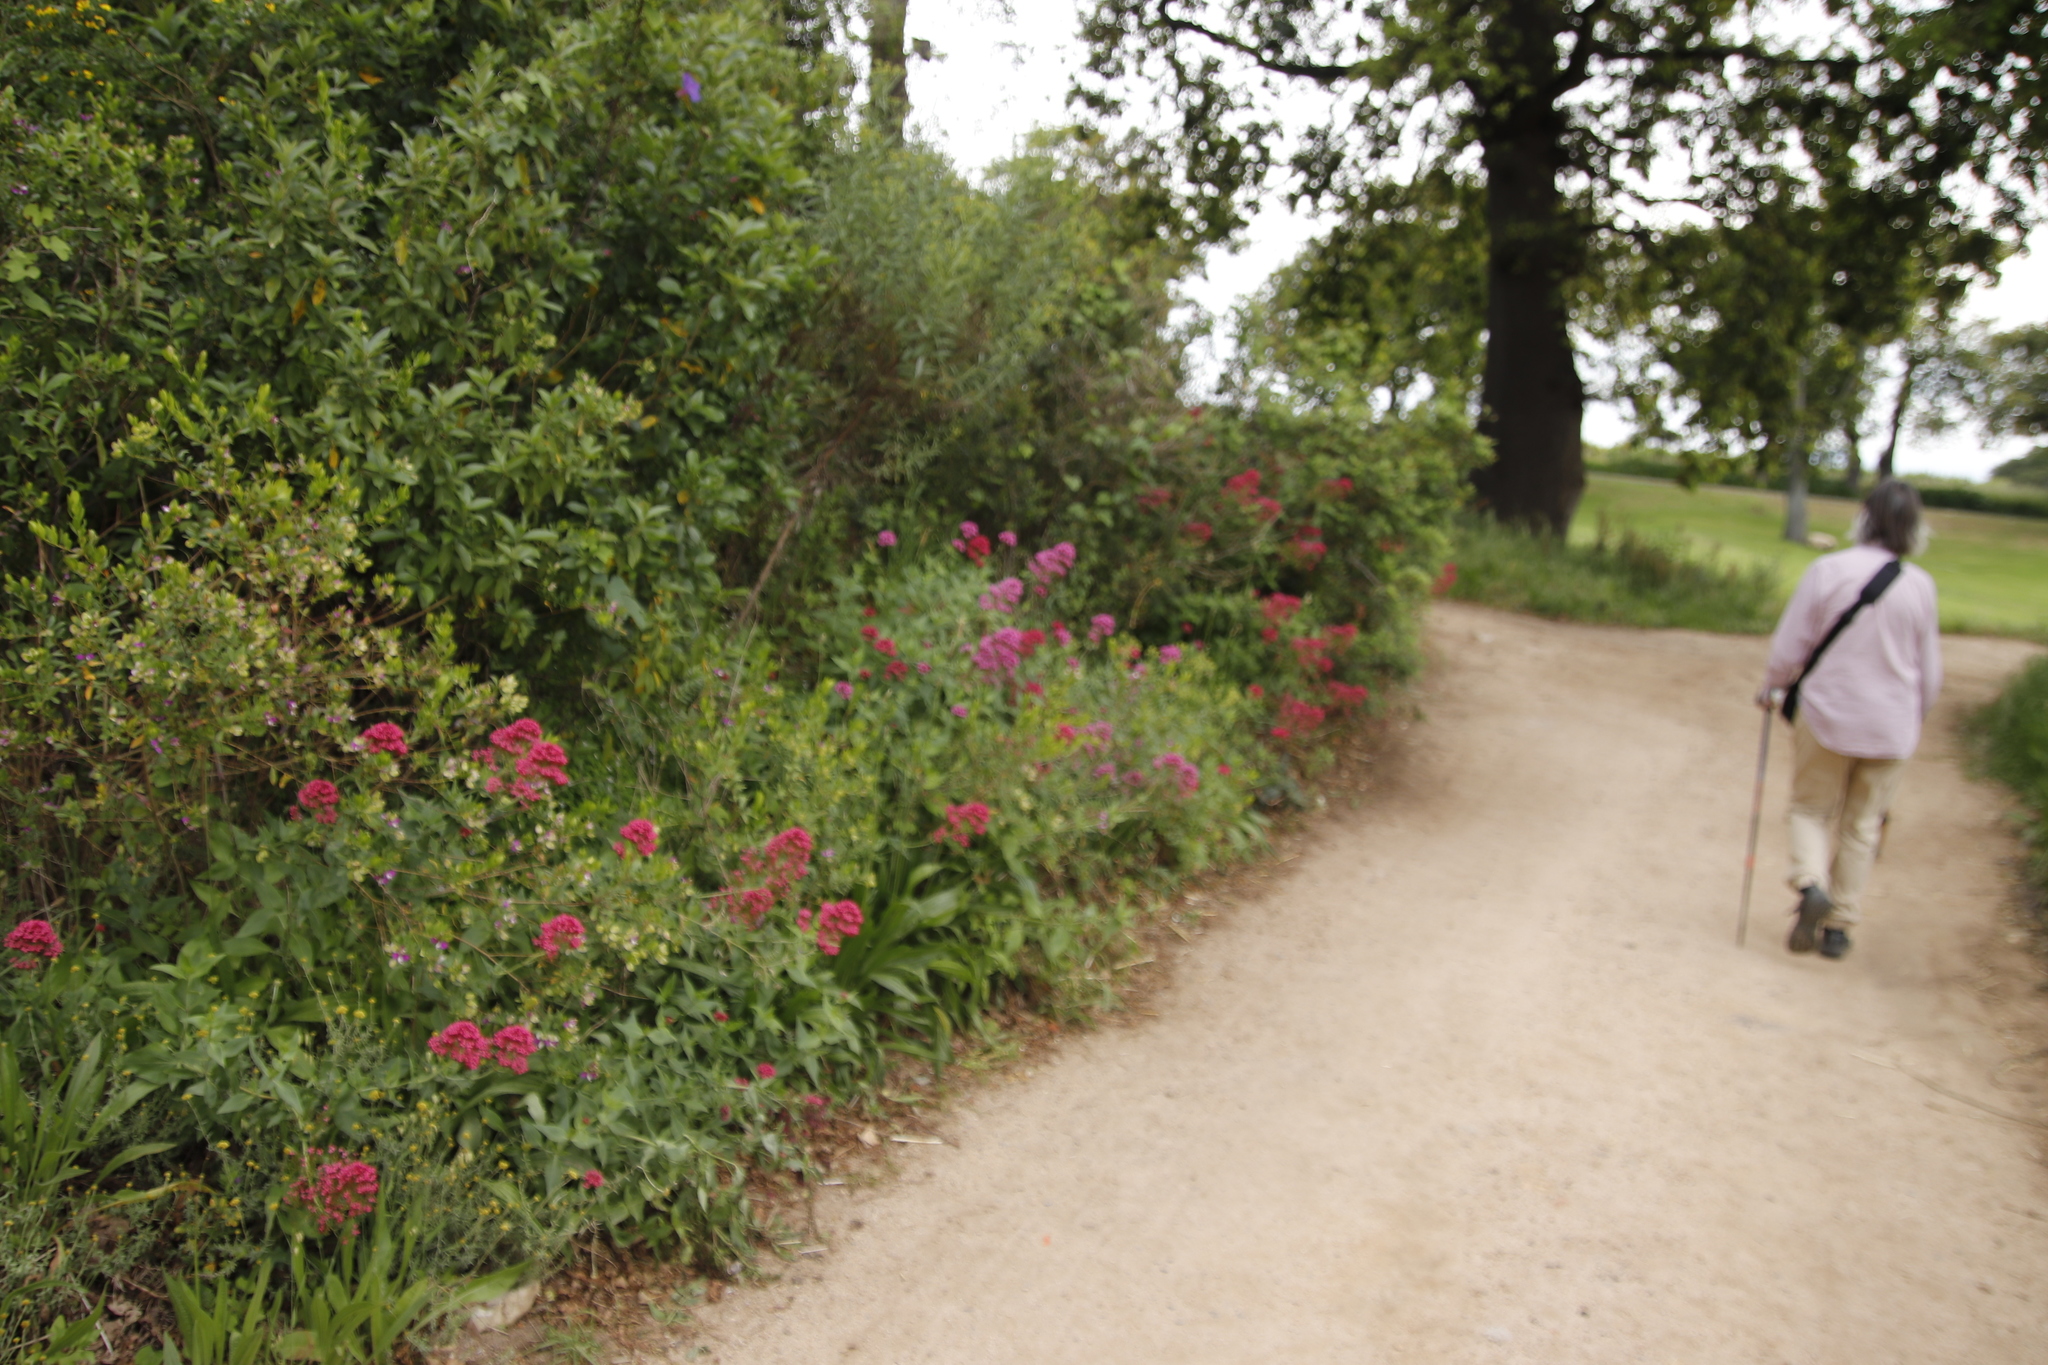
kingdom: Plantae
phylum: Tracheophyta
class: Magnoliopsida
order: Dipsacales
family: Caprifoliaceae
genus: Centranthus
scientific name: Centranthus ruber
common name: Red valerian
